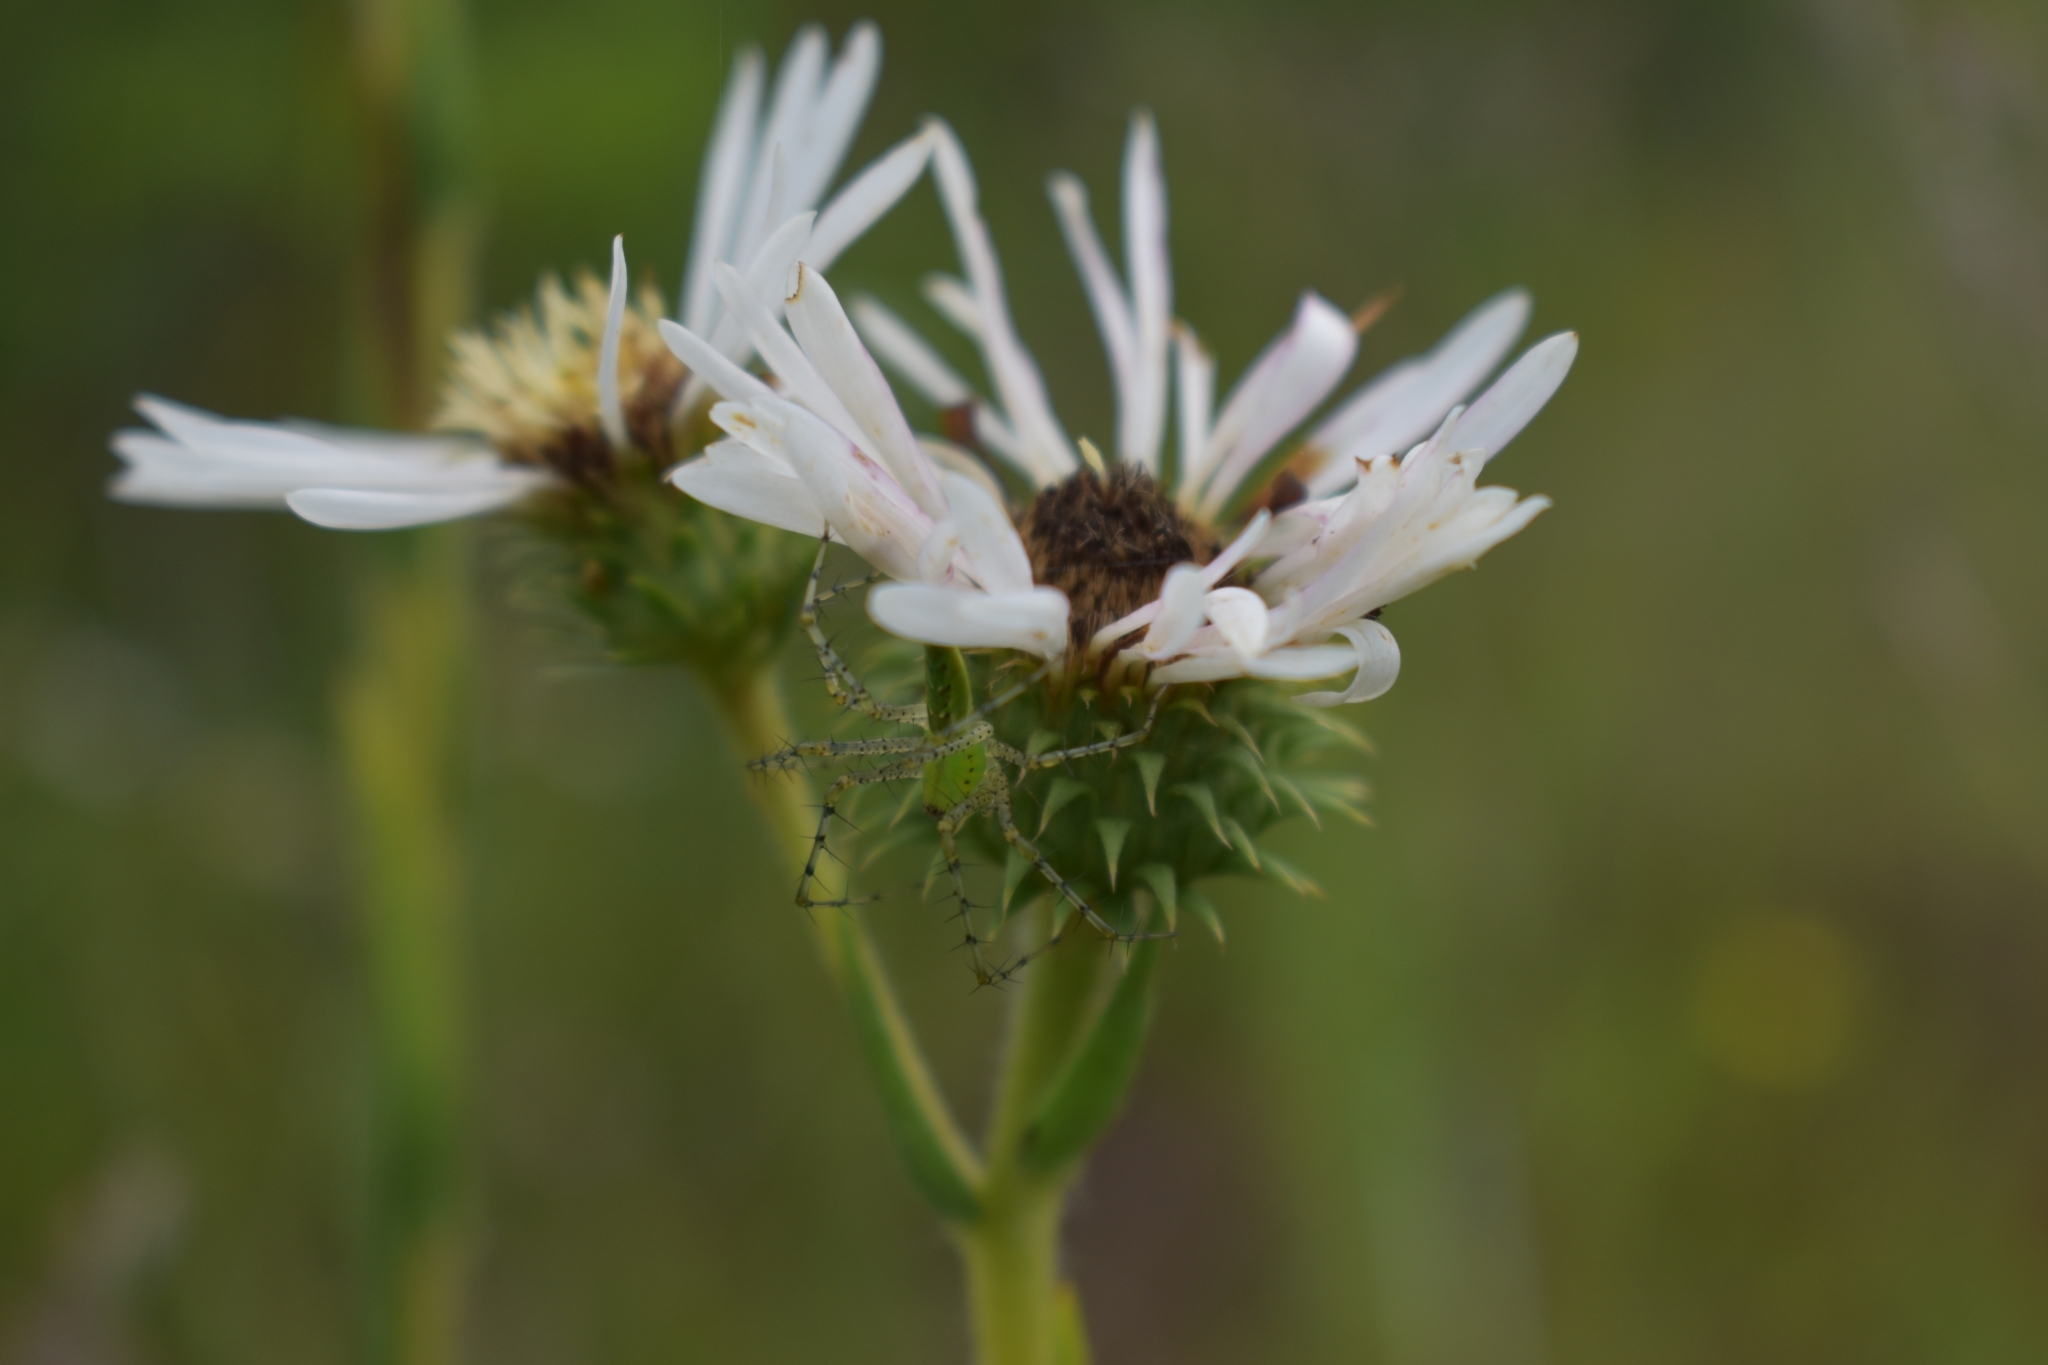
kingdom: Plantae
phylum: Tracheophyta
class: Magnoliopsida
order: Asterales
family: Asteraceae
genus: Eurybia
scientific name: Eurybia eryngiifolia
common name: Thistle-leaf aster
